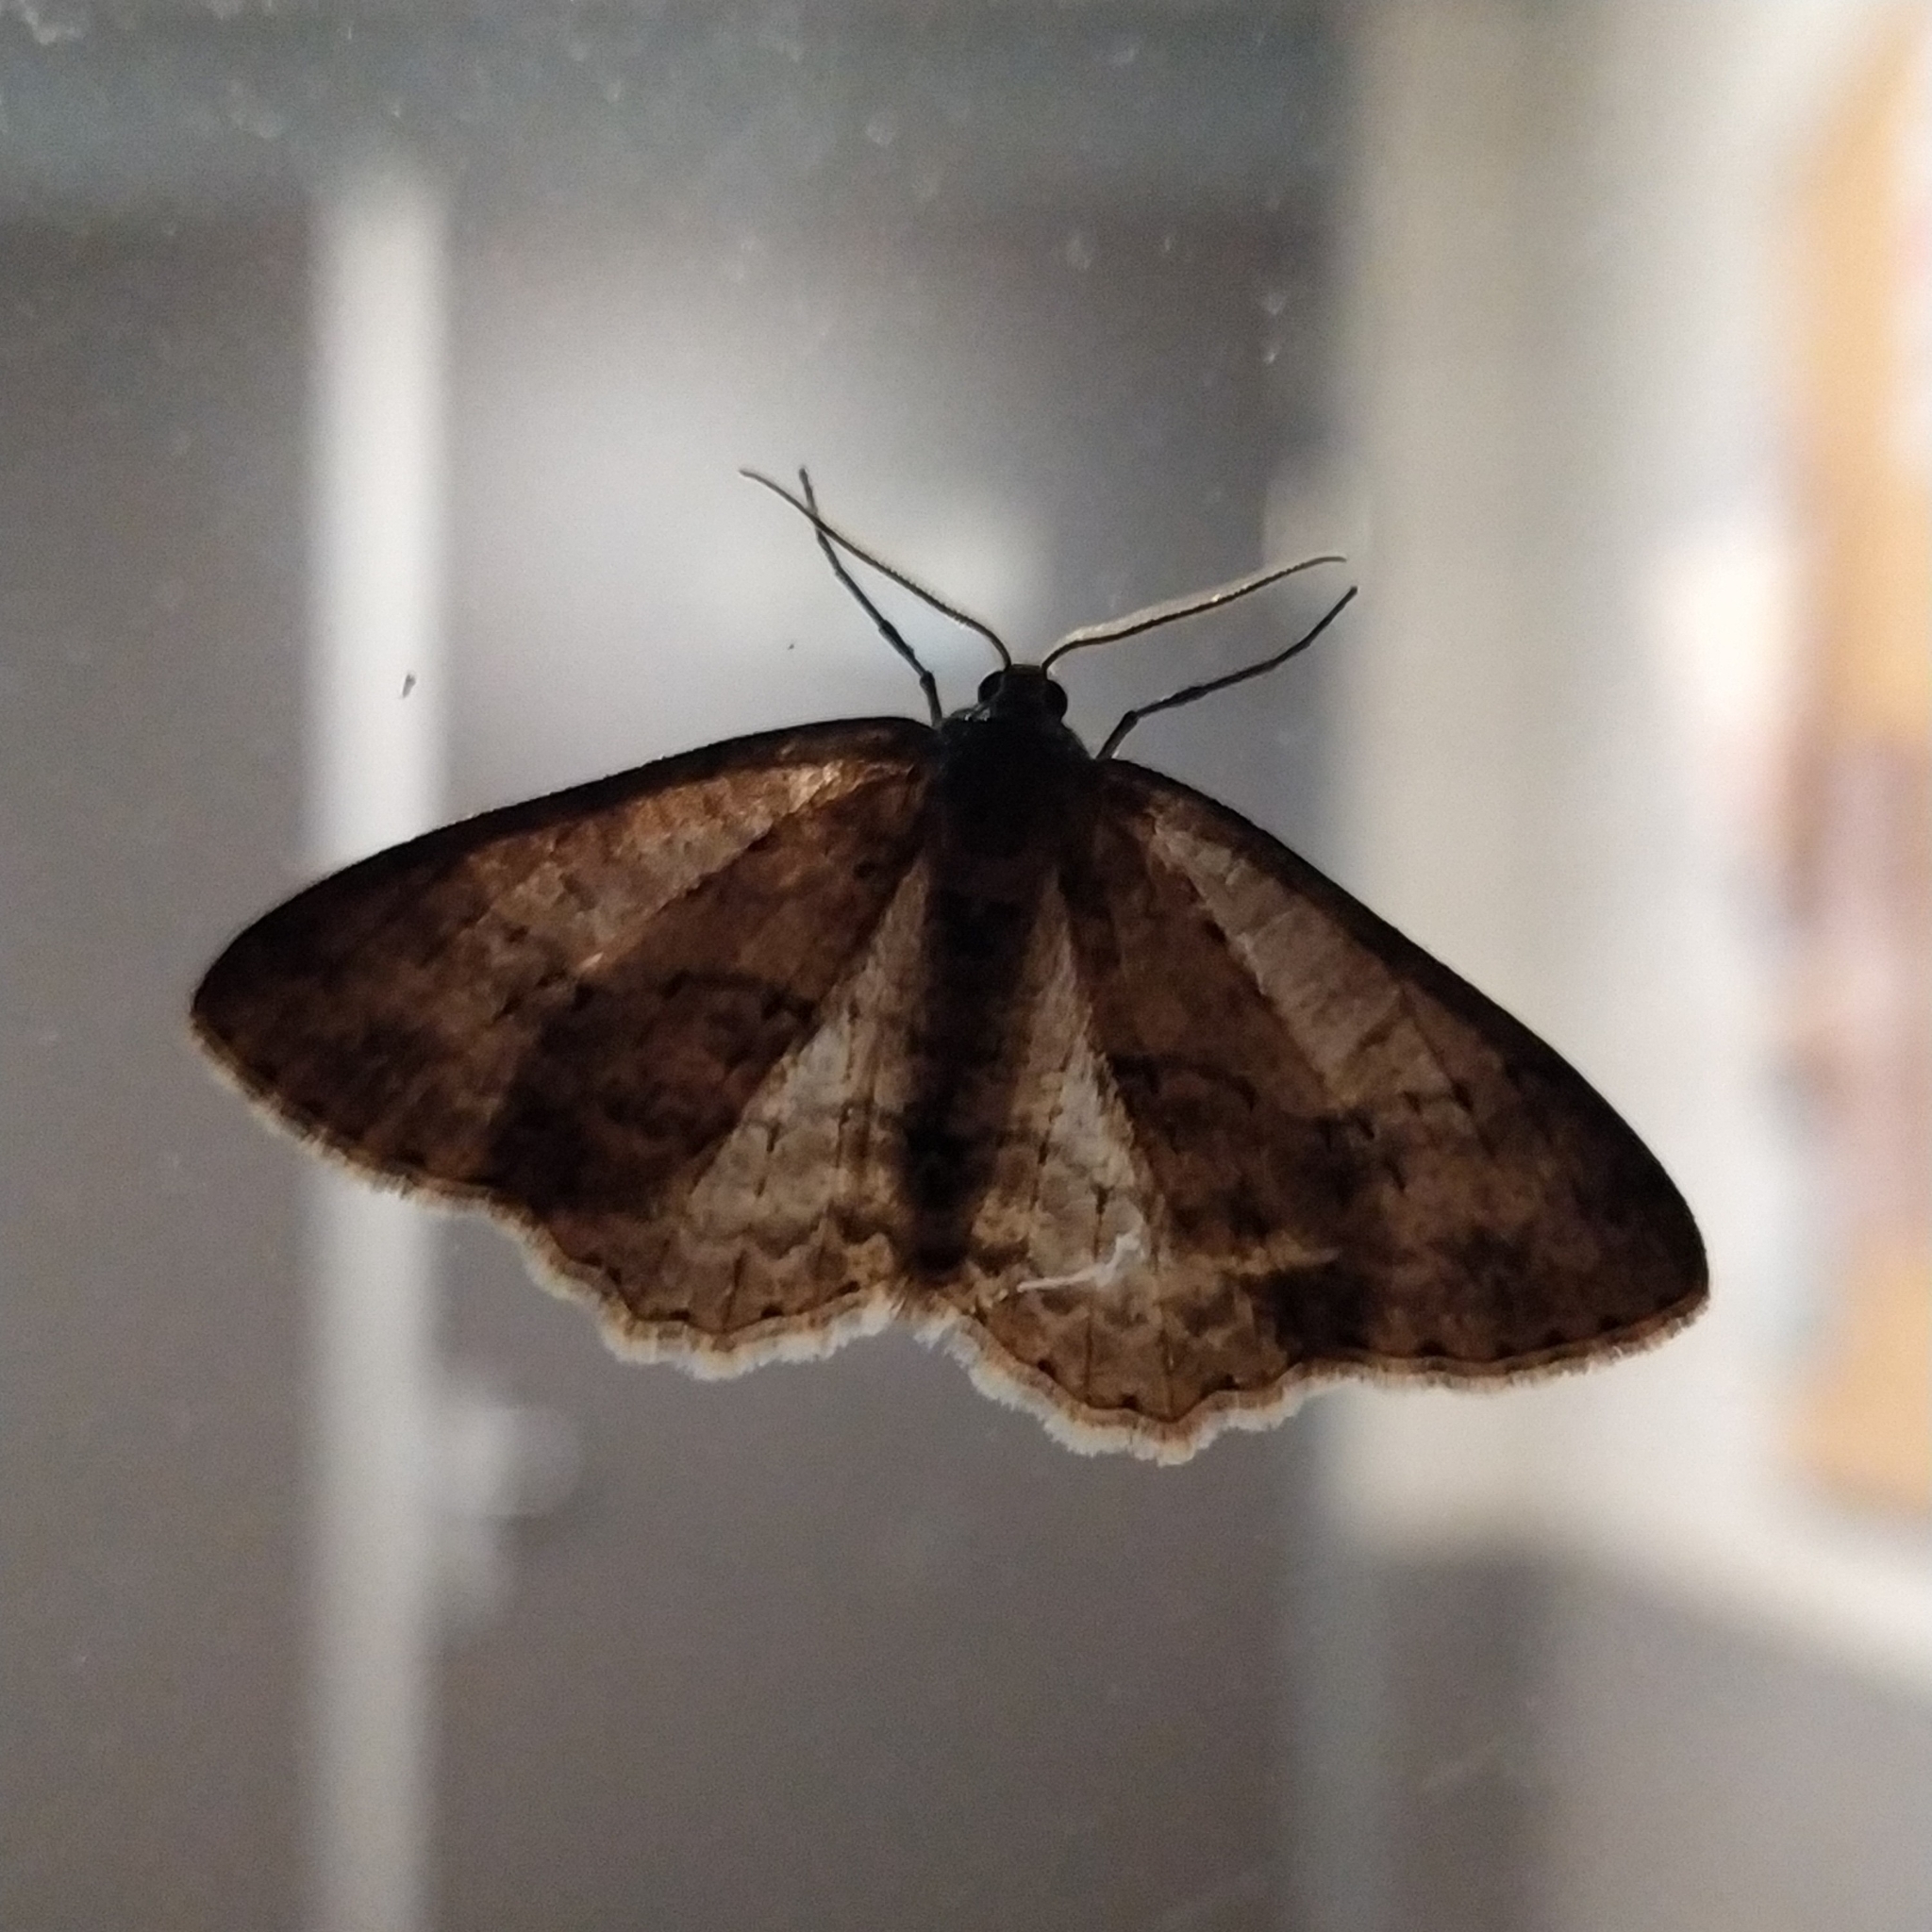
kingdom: Animalia
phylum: Arthropoda
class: Insecta
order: Lepidoptera
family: Geometridae
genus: Ectropis
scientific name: Ectropis crepuscularia
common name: Engrailed
